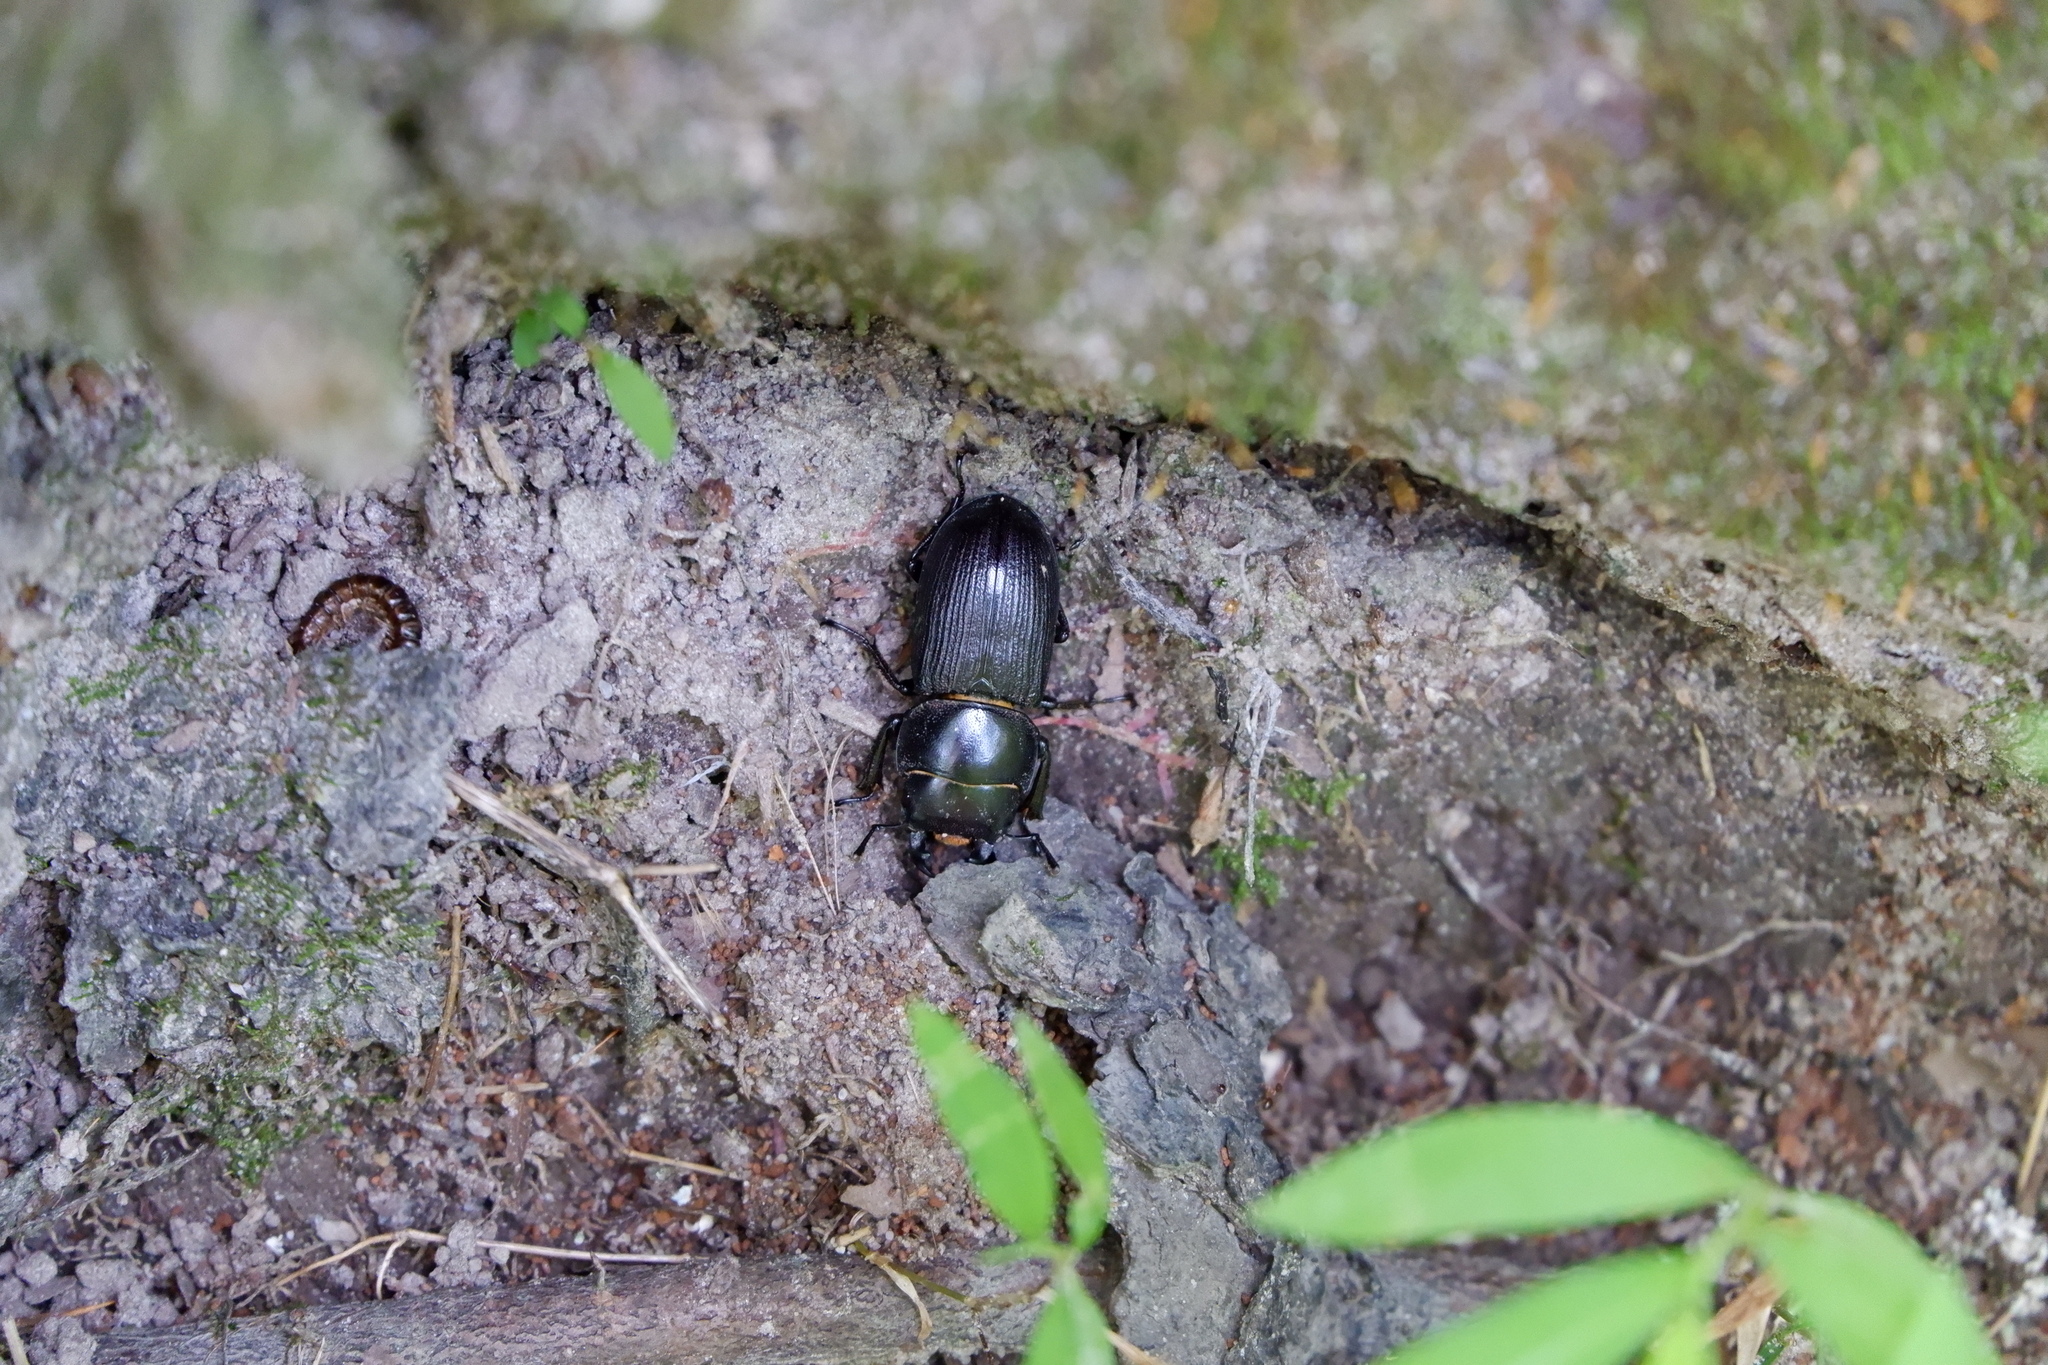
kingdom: Animalia
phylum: Arthropoda
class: Insecta
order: Coleoptera
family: Lucanidae
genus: Dorcus
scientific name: Dorcus parallelus
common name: Antelope beetle
